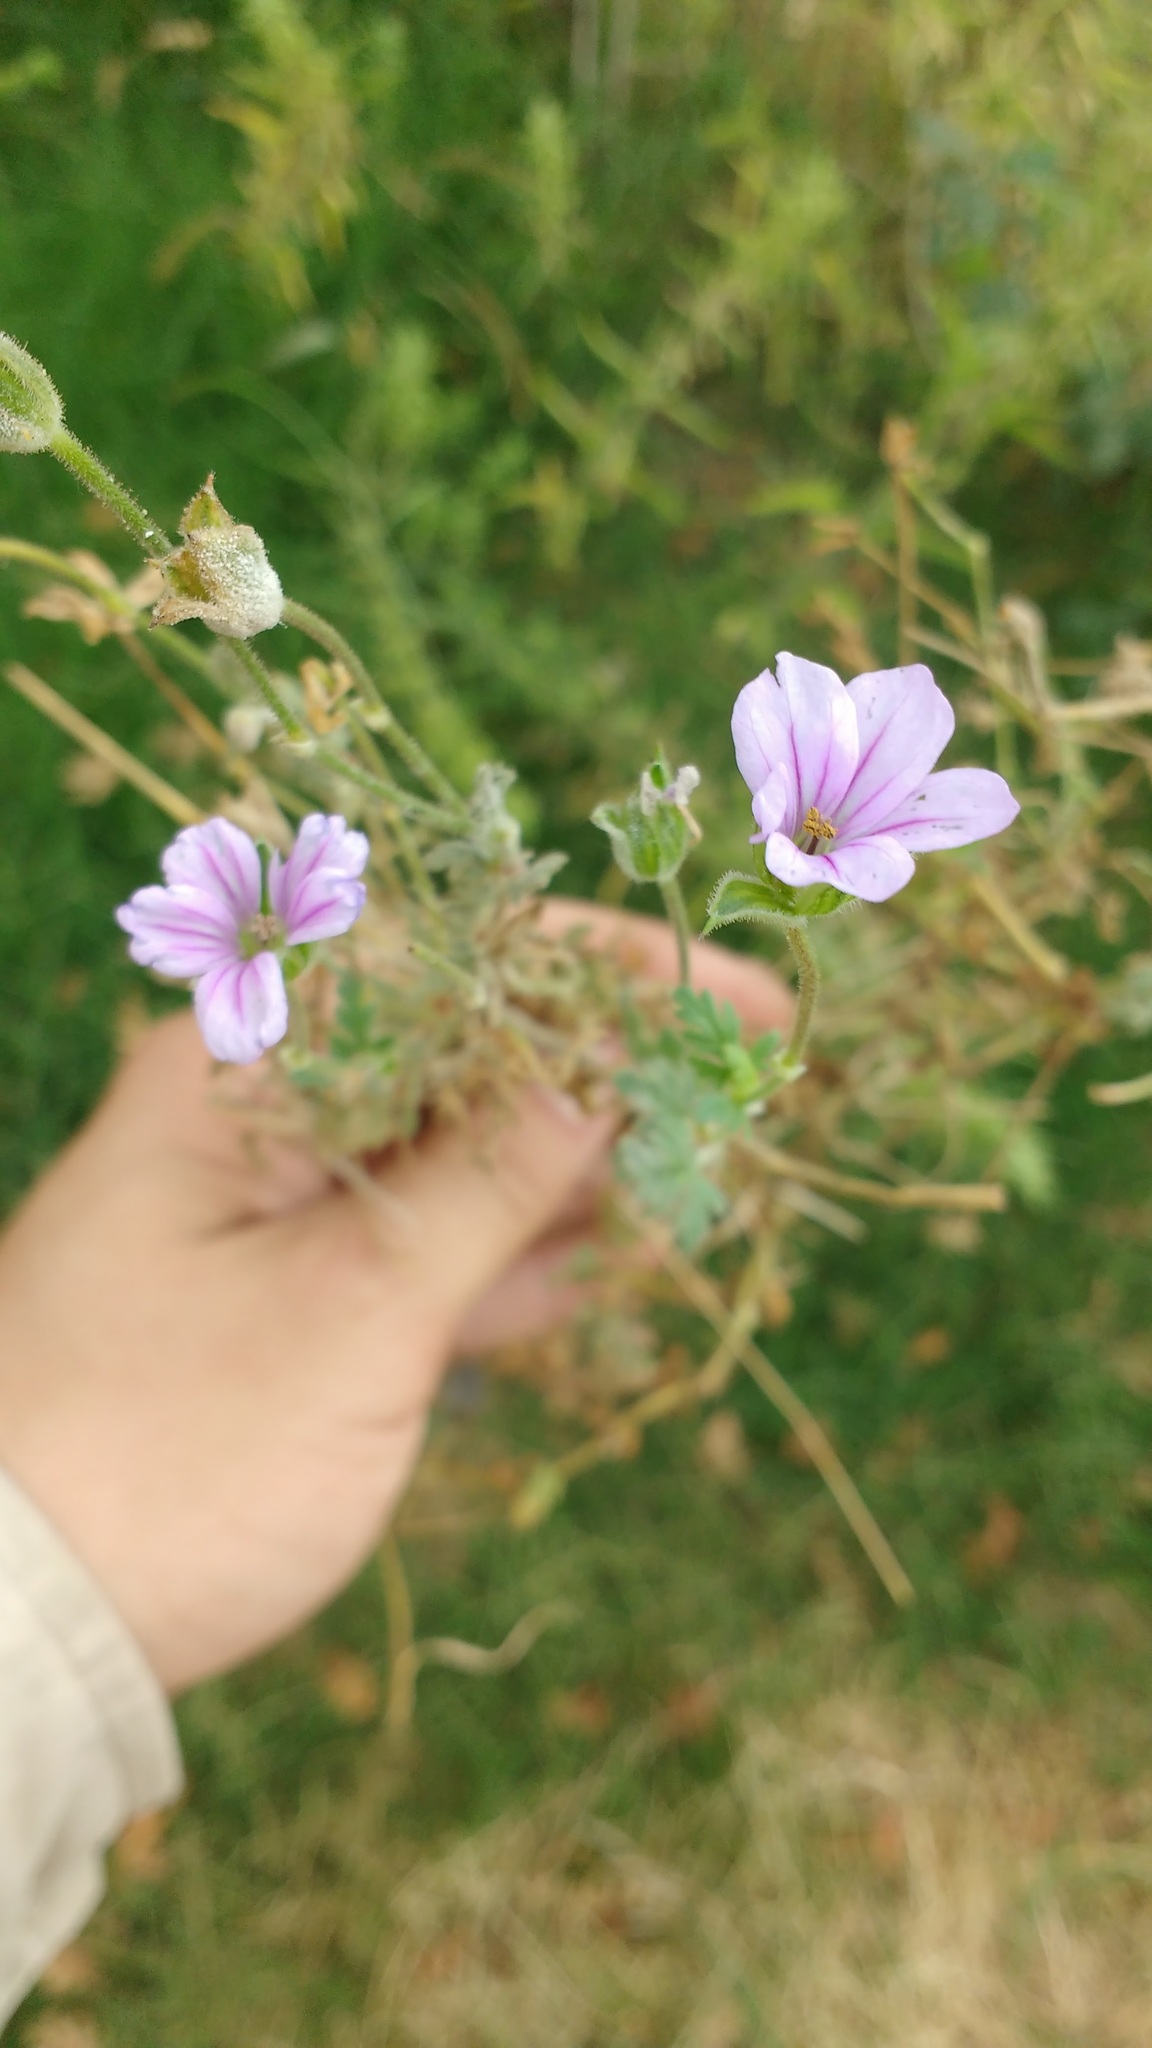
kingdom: Plantae
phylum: Tracheophyta
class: Magnoliopsida
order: Geraniales
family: Geraniaceae
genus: Erodium
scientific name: Erodium botrys
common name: Mediterranean stork's-bill
